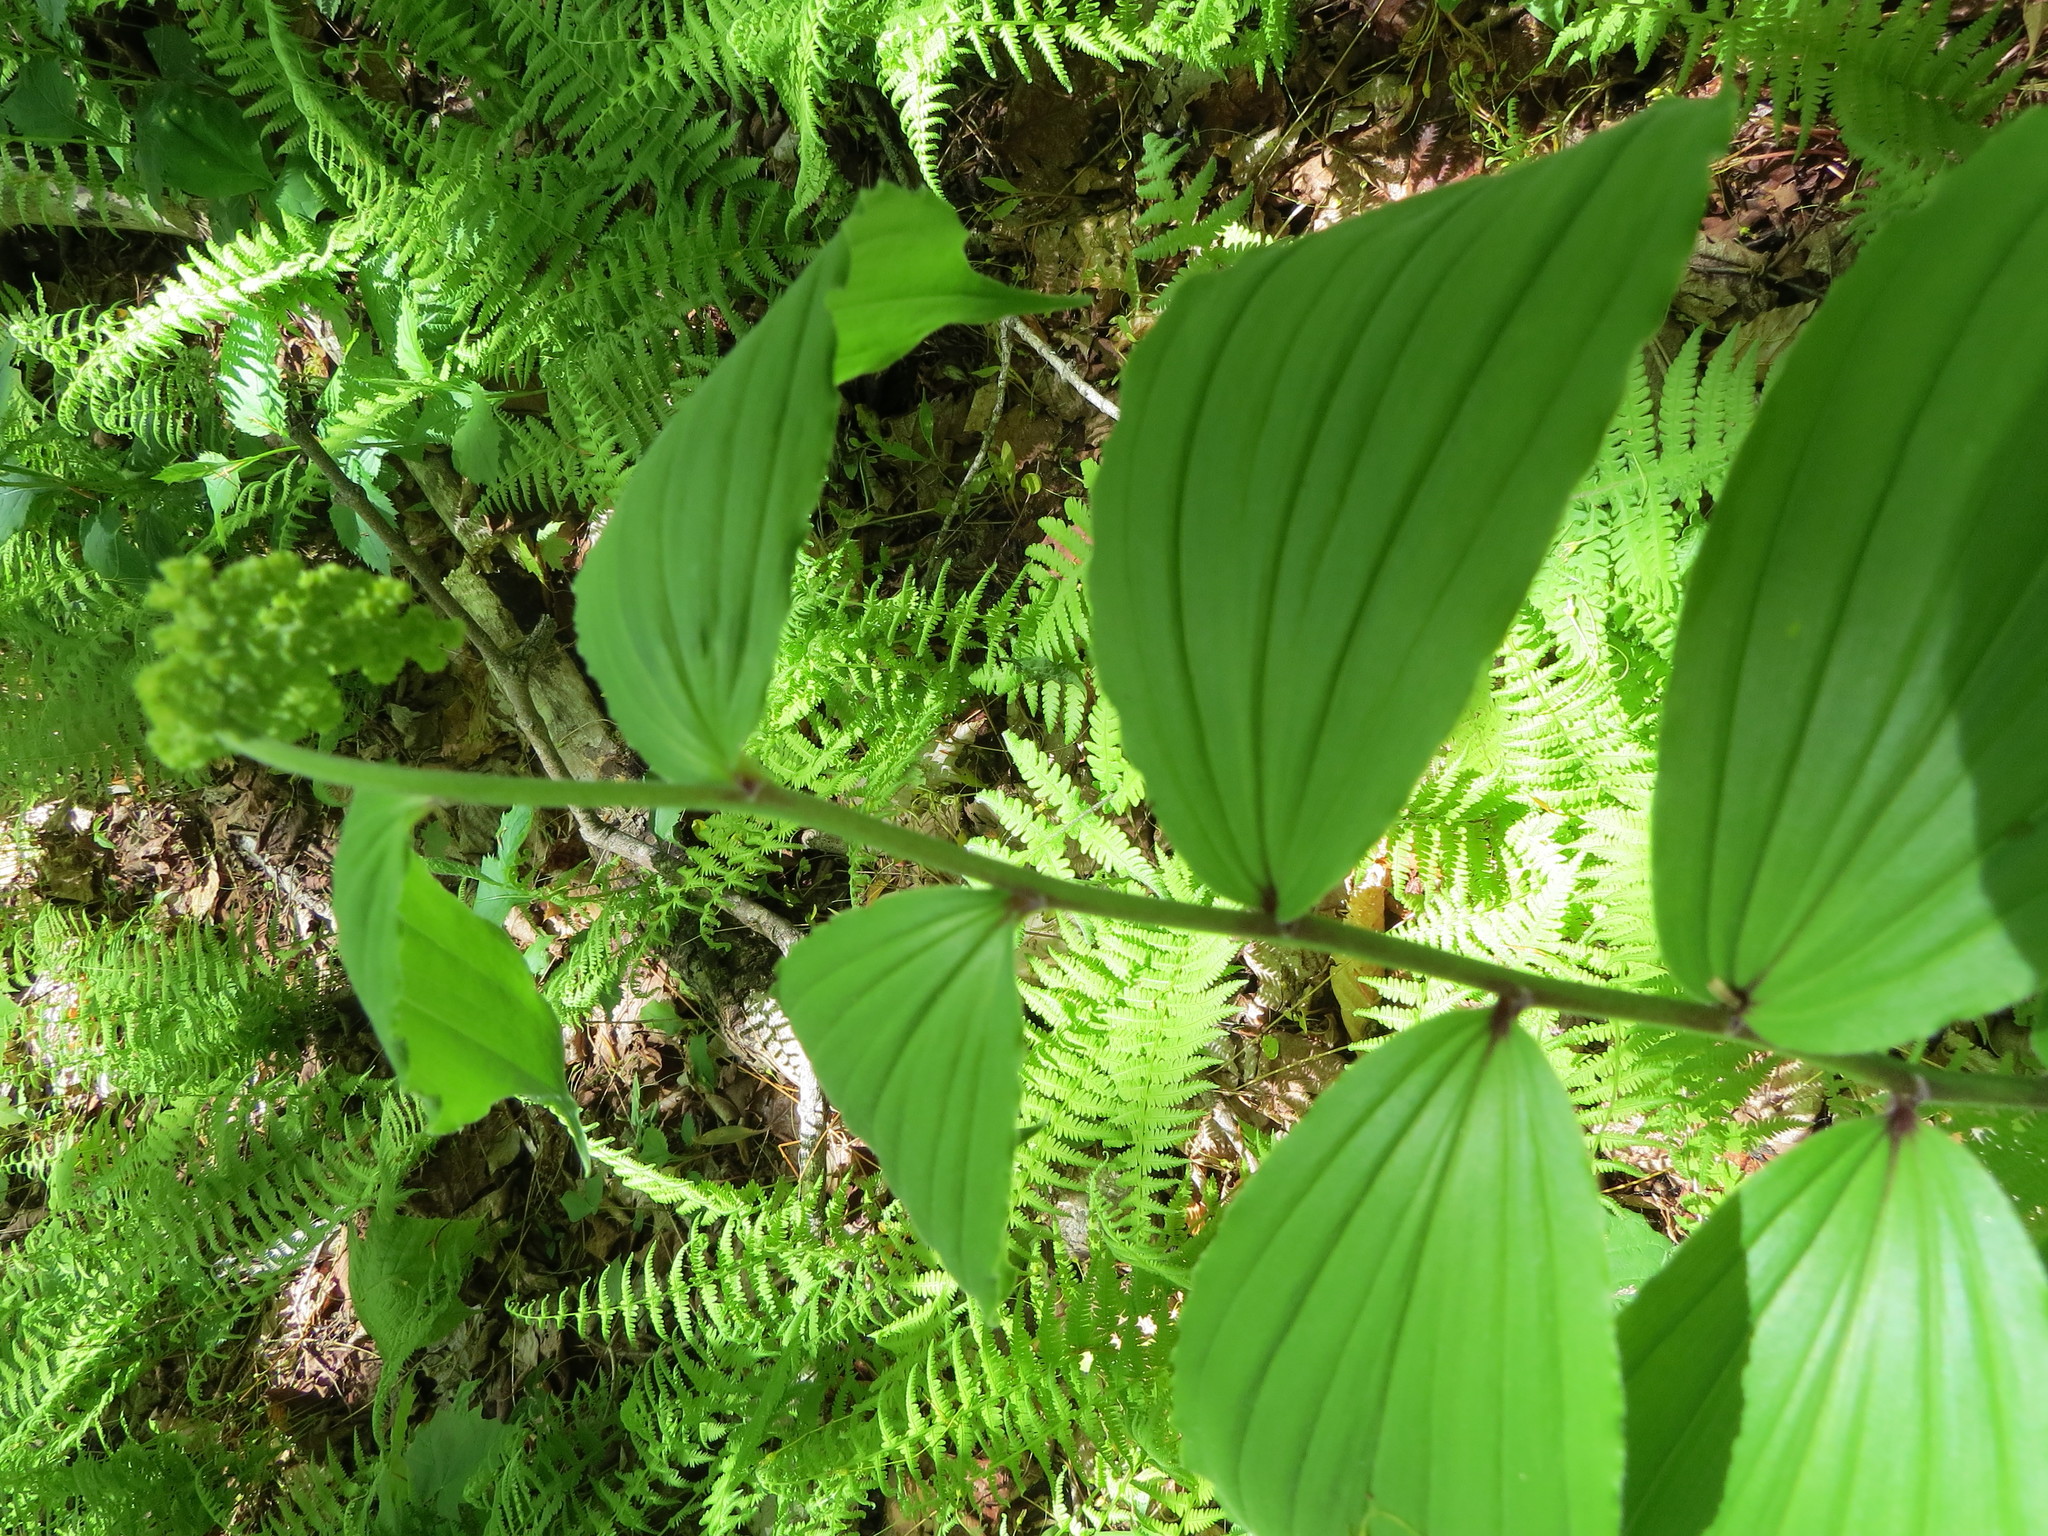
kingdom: Plantae
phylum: Tracheophyta
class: Liliopsida
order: Asparagales
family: Asparagaceae
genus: Maianthemum
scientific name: Maianthemum racemosum
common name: False spikenard
